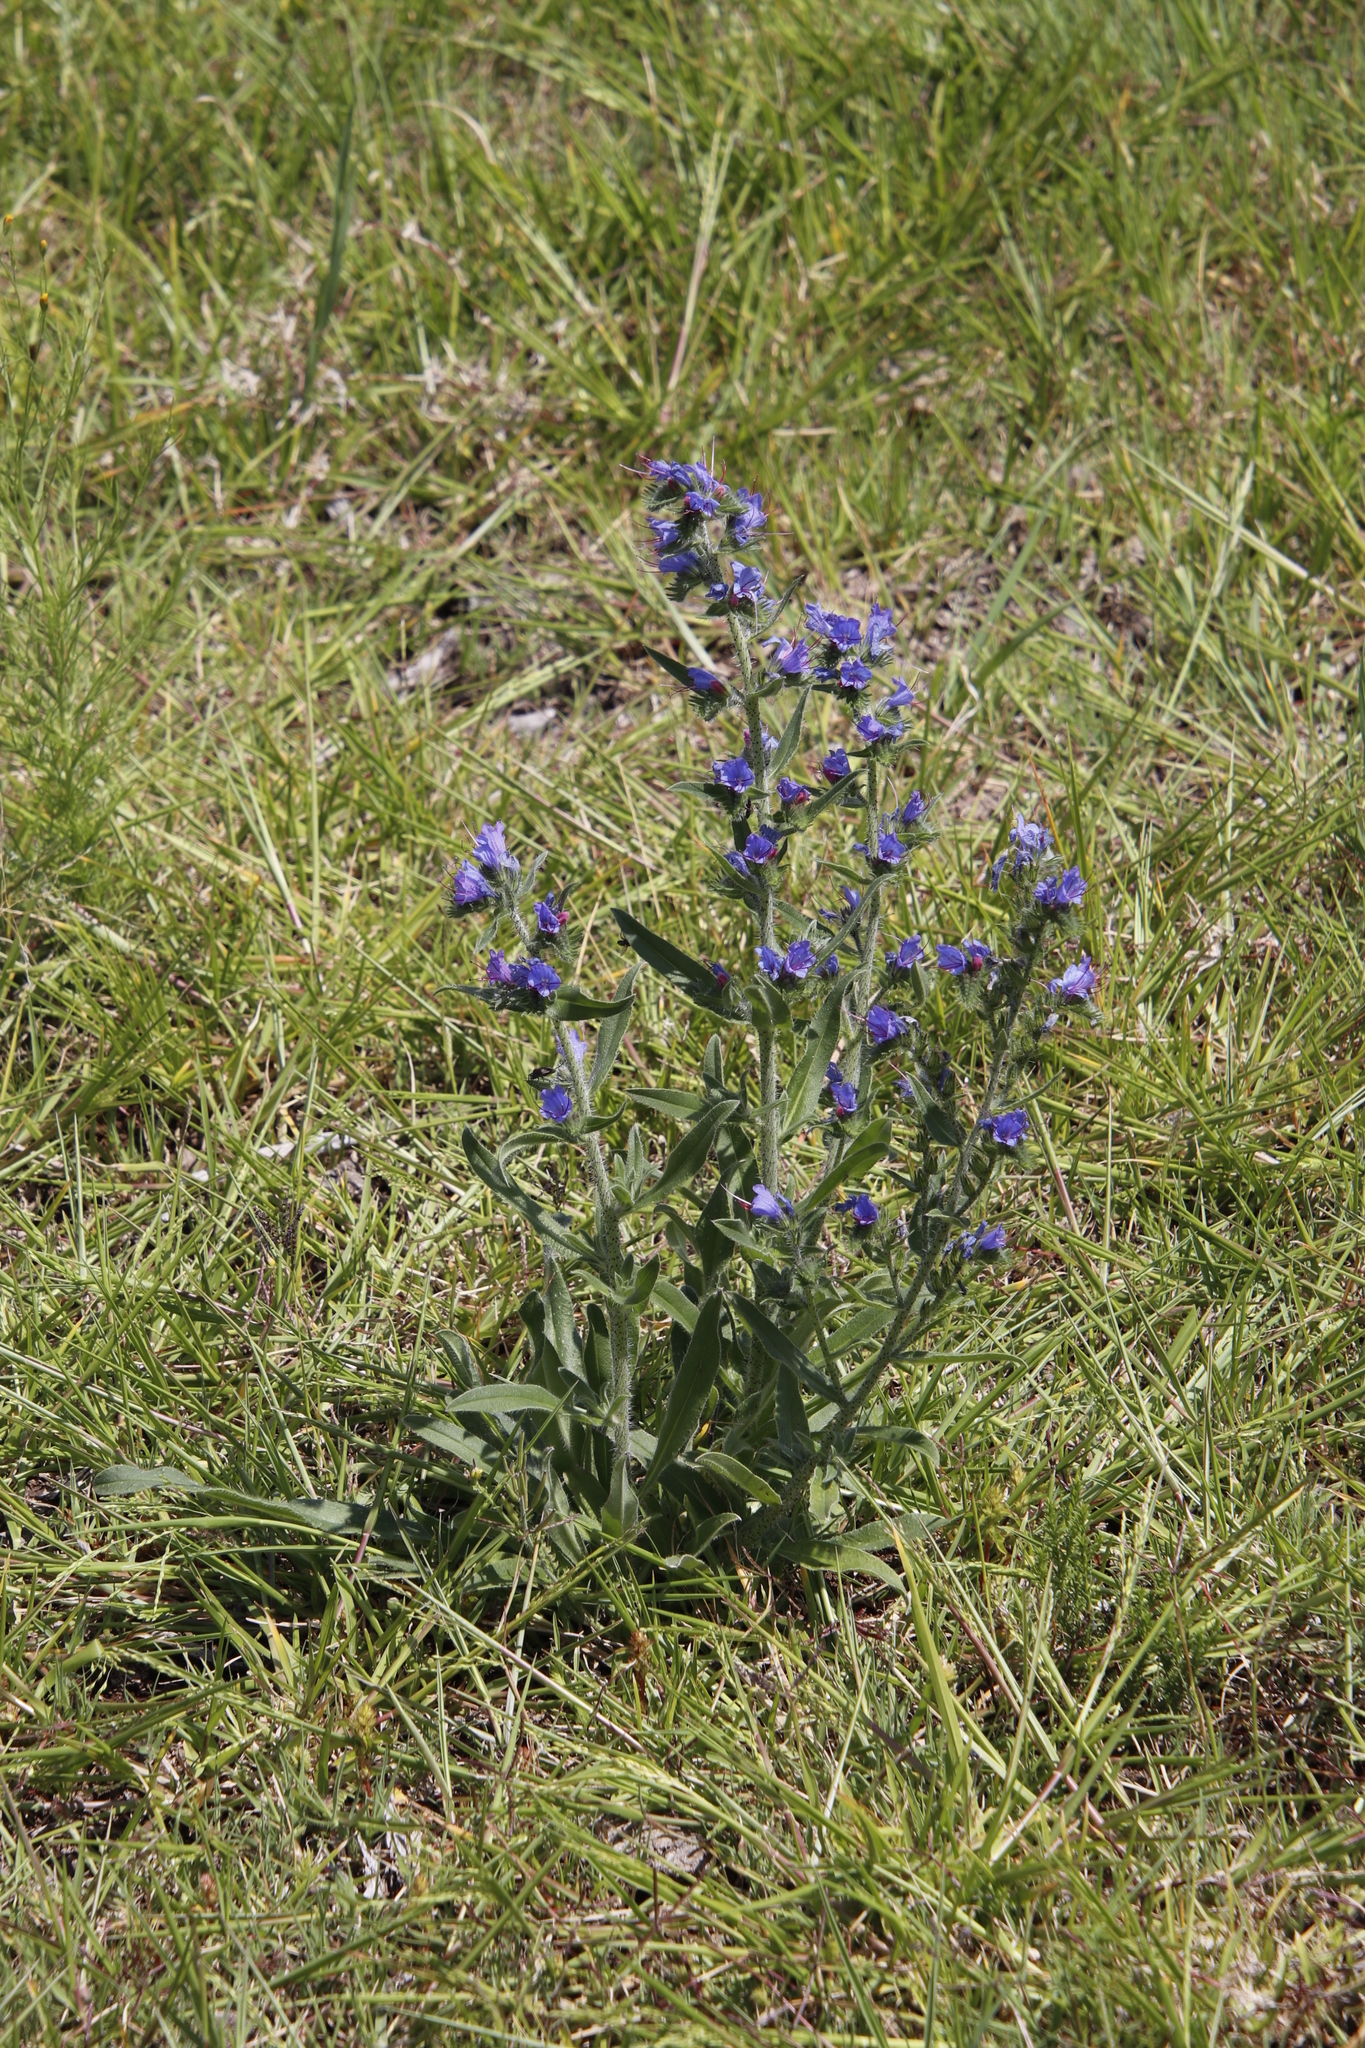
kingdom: Plantae
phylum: Tracheophyta
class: Magnoliopsida
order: Boraginales
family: Boraginaceae
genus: Echium
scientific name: Echium vulgare
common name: Common viper's bugloss
